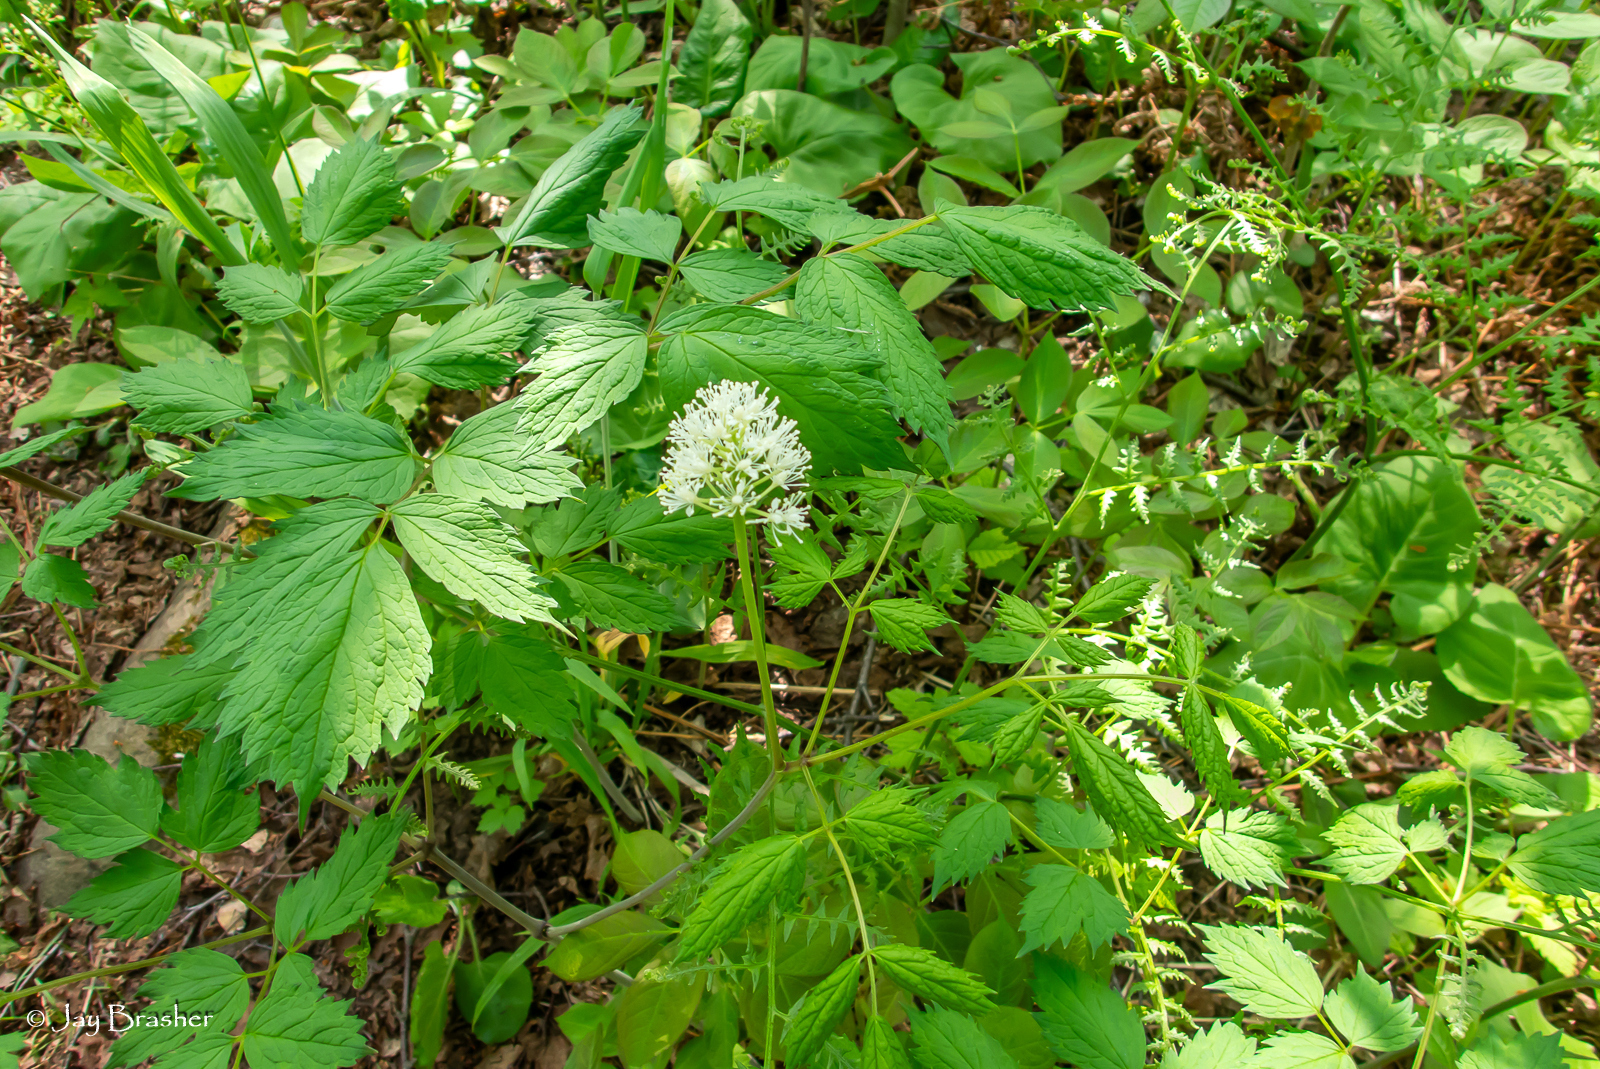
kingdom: Plantae
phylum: Tracheophyta
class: Magnoliopsida
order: Ranunculales
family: Ranunculaceae
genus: Actaea
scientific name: Actaea rubra
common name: Red baneberry
